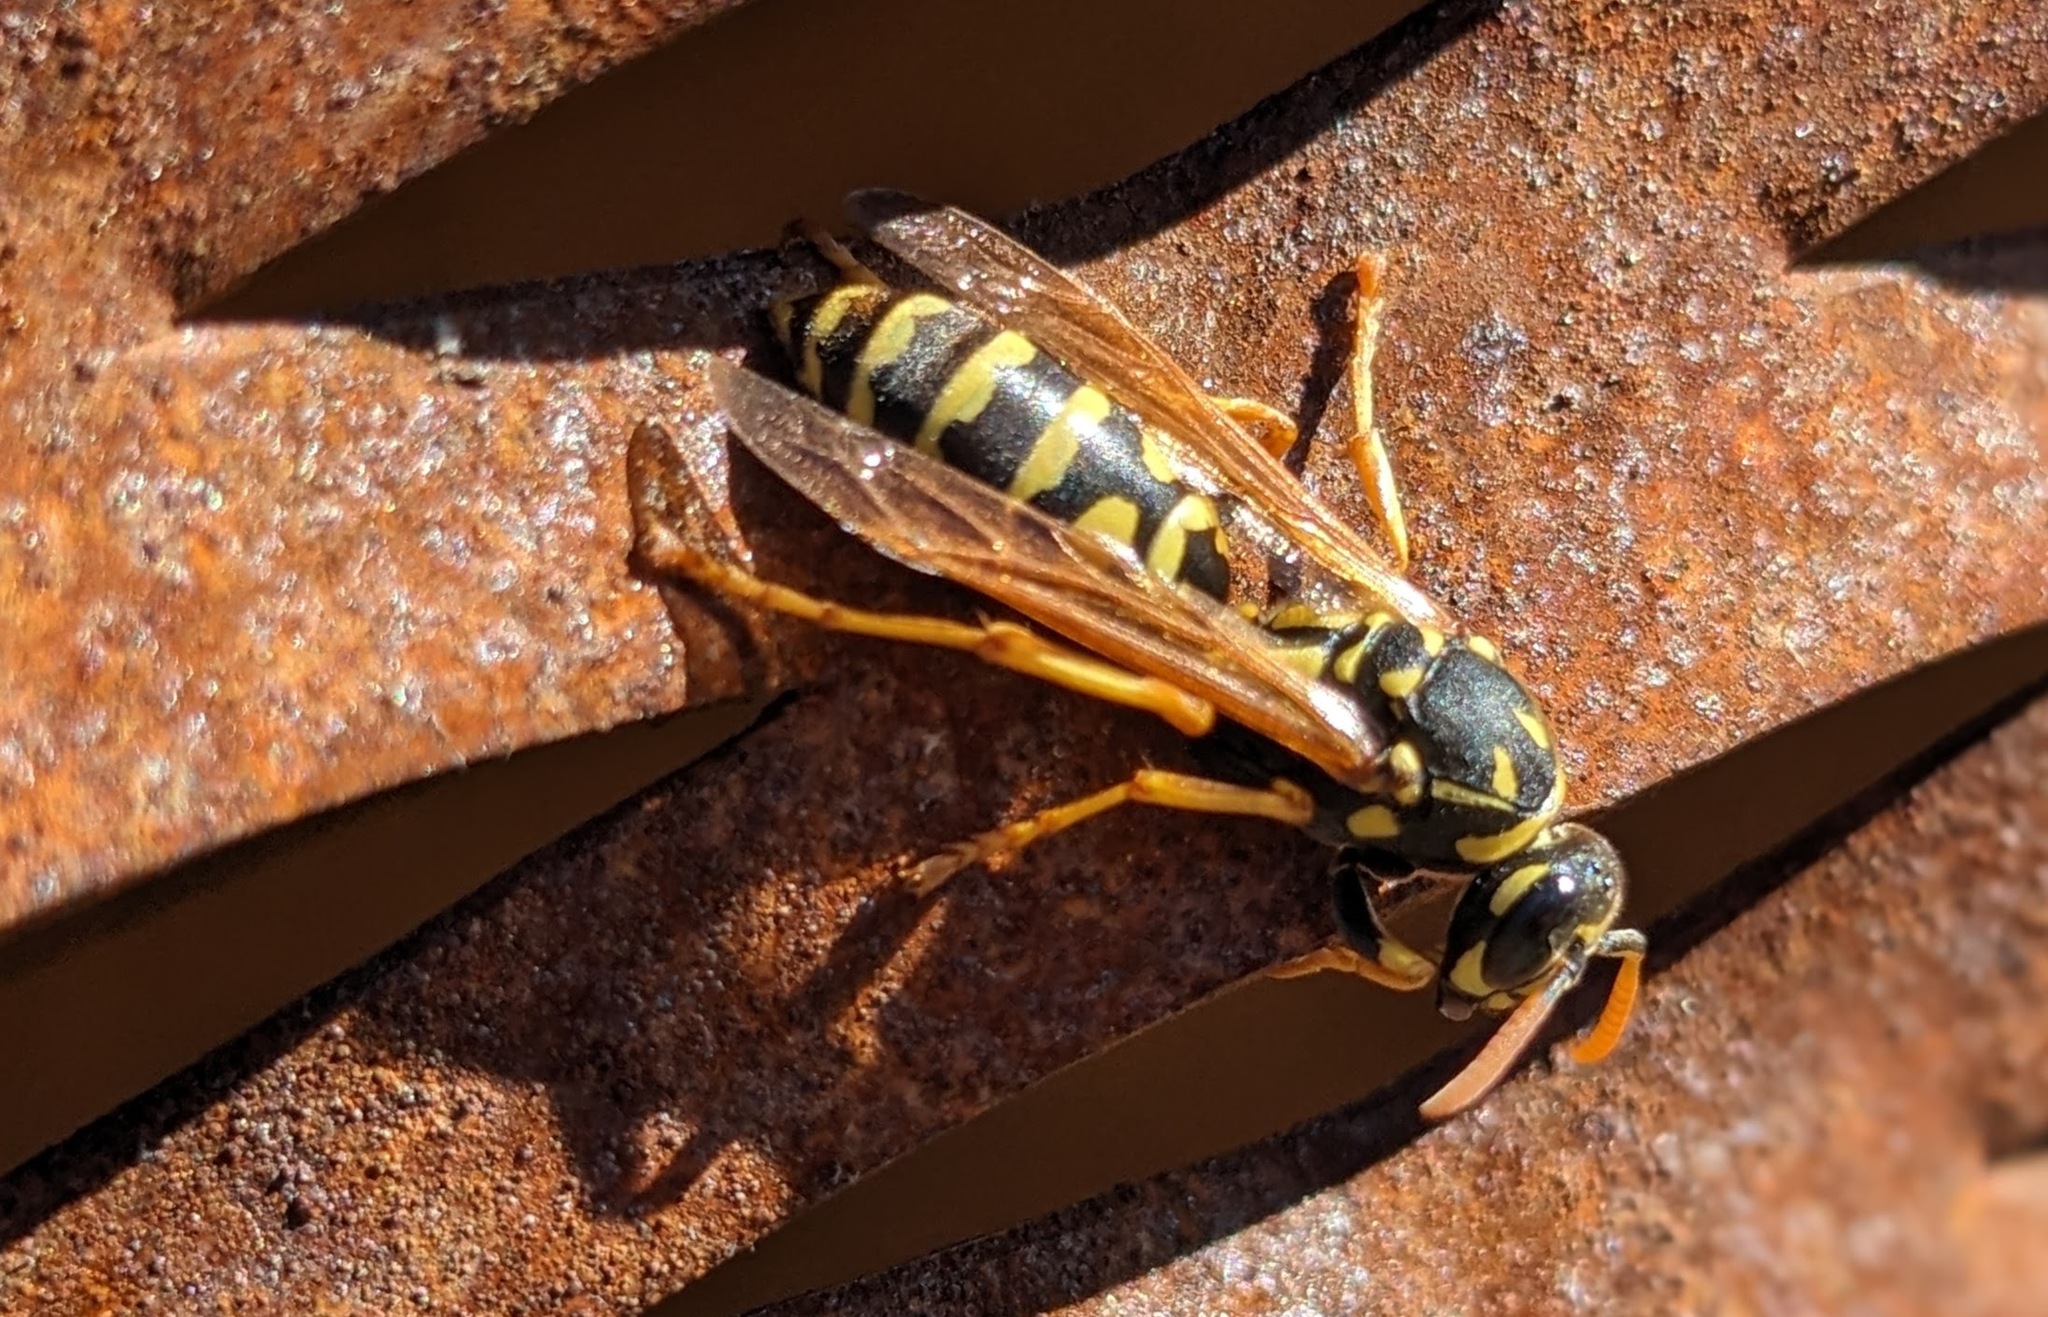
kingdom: Animalia
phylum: Arthropoda
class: Insecta
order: Hymenoptera
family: Eumenidae
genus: Polistes
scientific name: Polistes dominula
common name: Paper wasp
